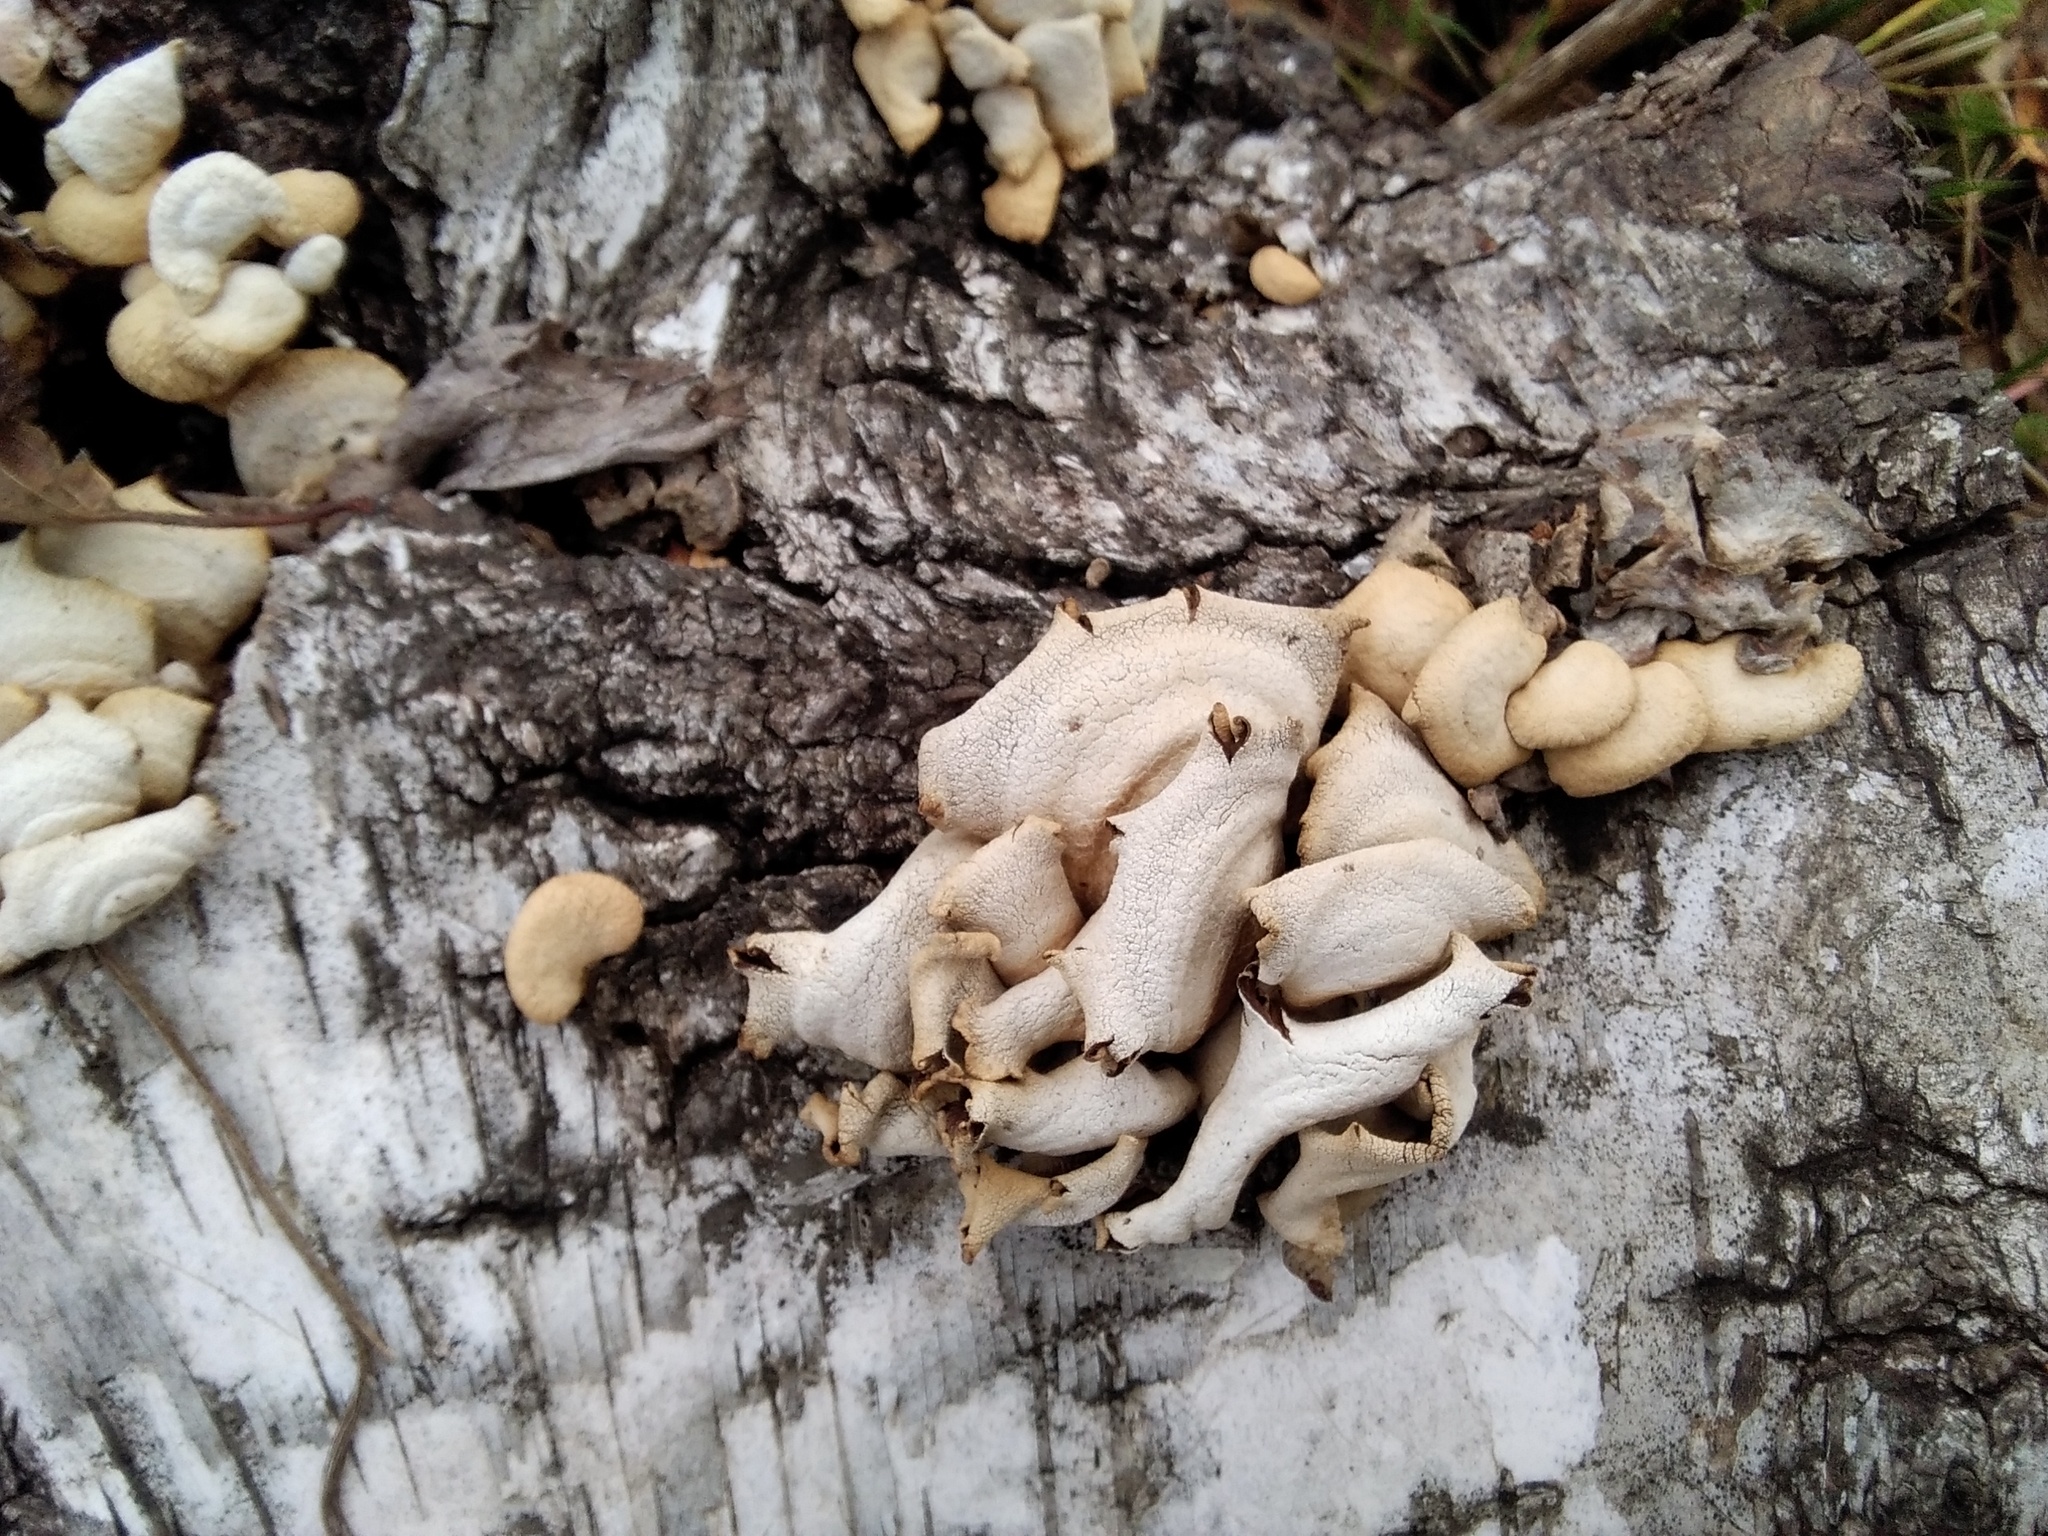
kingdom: Fungi
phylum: Basidiomycota
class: Agaricomycetes
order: Agaricales
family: Mycenaceae
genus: Panellus
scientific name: Panellus stipticus
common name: Bitter oysterling
